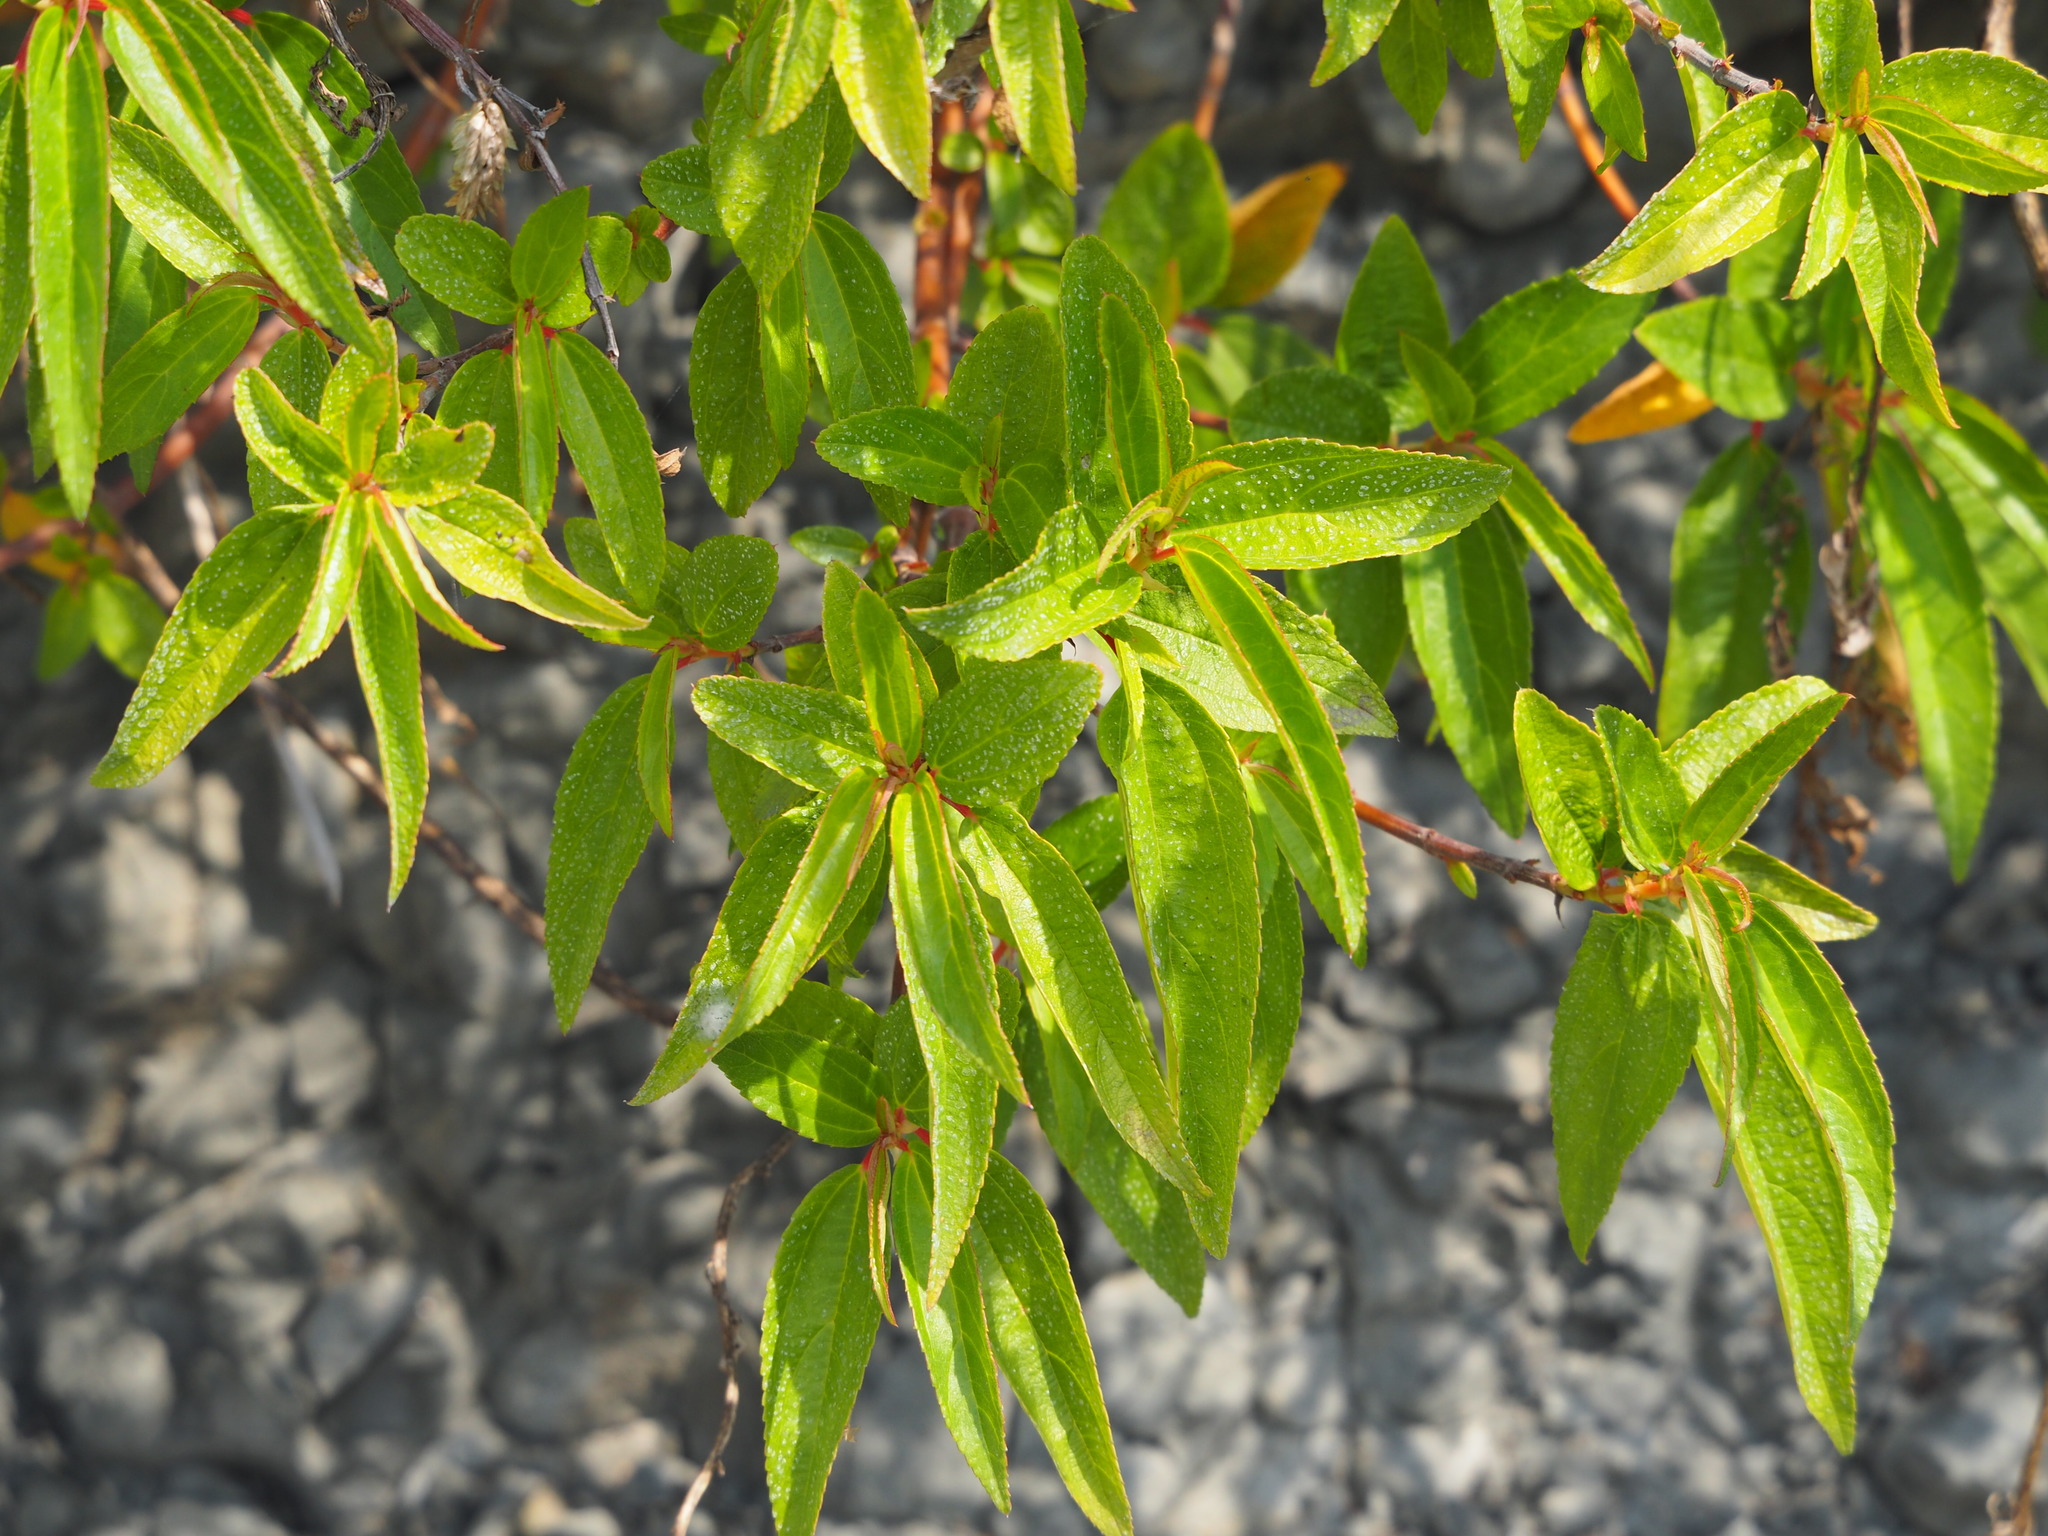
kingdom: Plantae
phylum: Tracheophyta
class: Magnoliopsida
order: Rosales
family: Urticaceae
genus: Boehmeria
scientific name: Boehmeria densiflora
